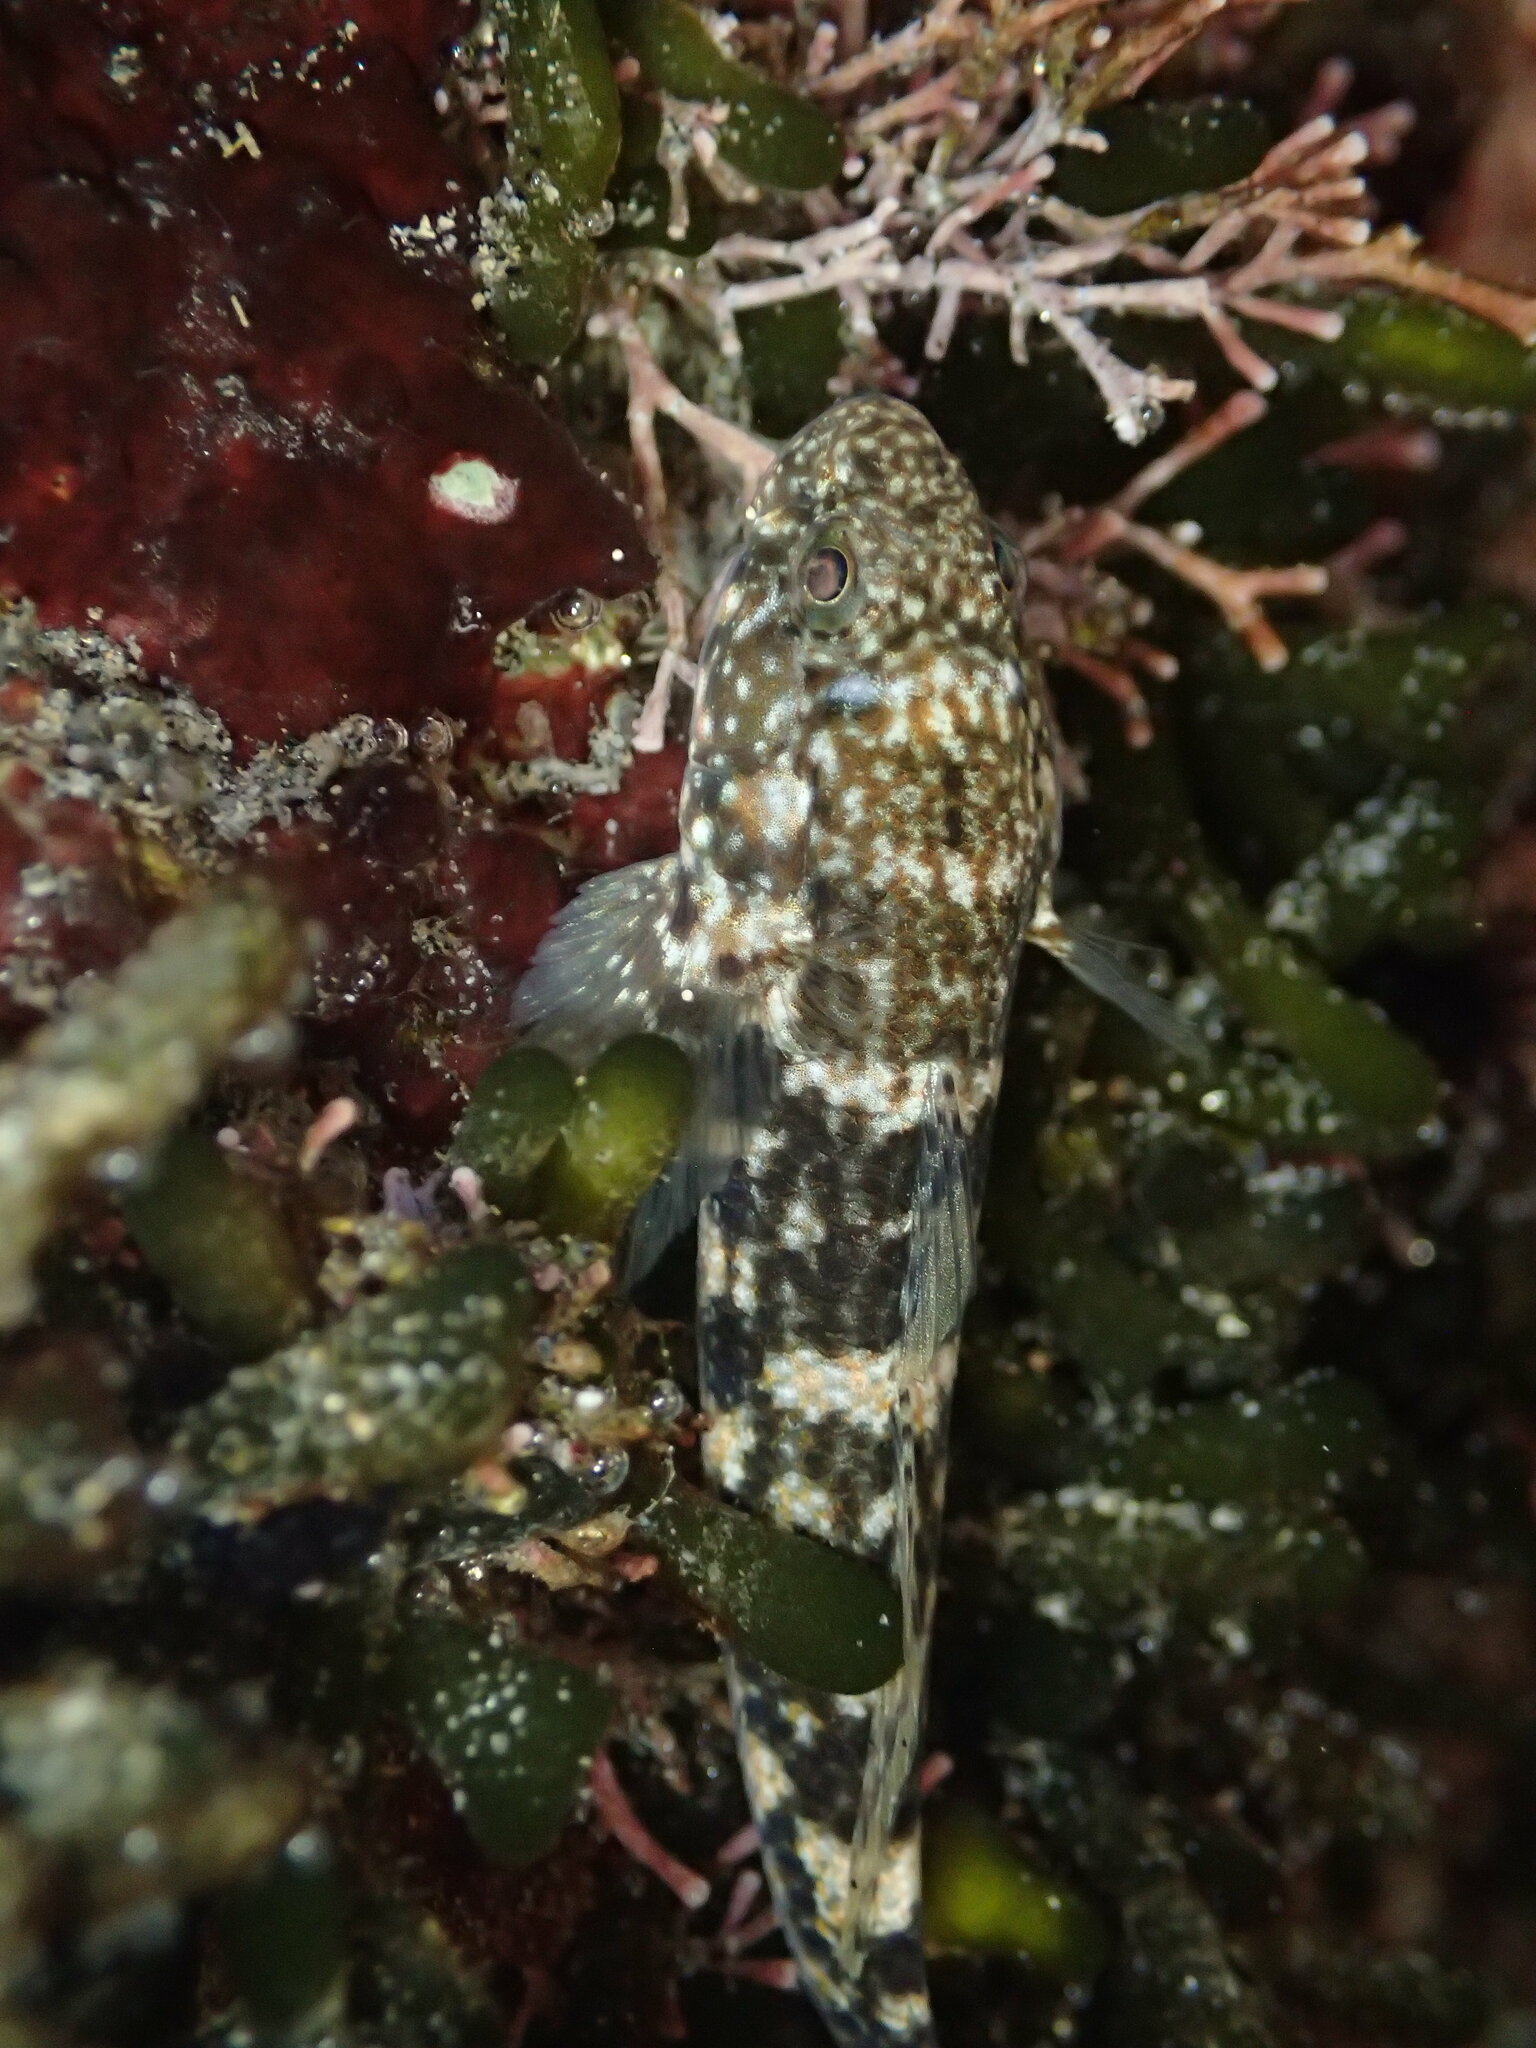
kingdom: Animalia
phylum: Chordata
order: Perciformes
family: Gobiidae
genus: Bathygobius
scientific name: Bathygobius ramosus
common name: Panamic frillfin
